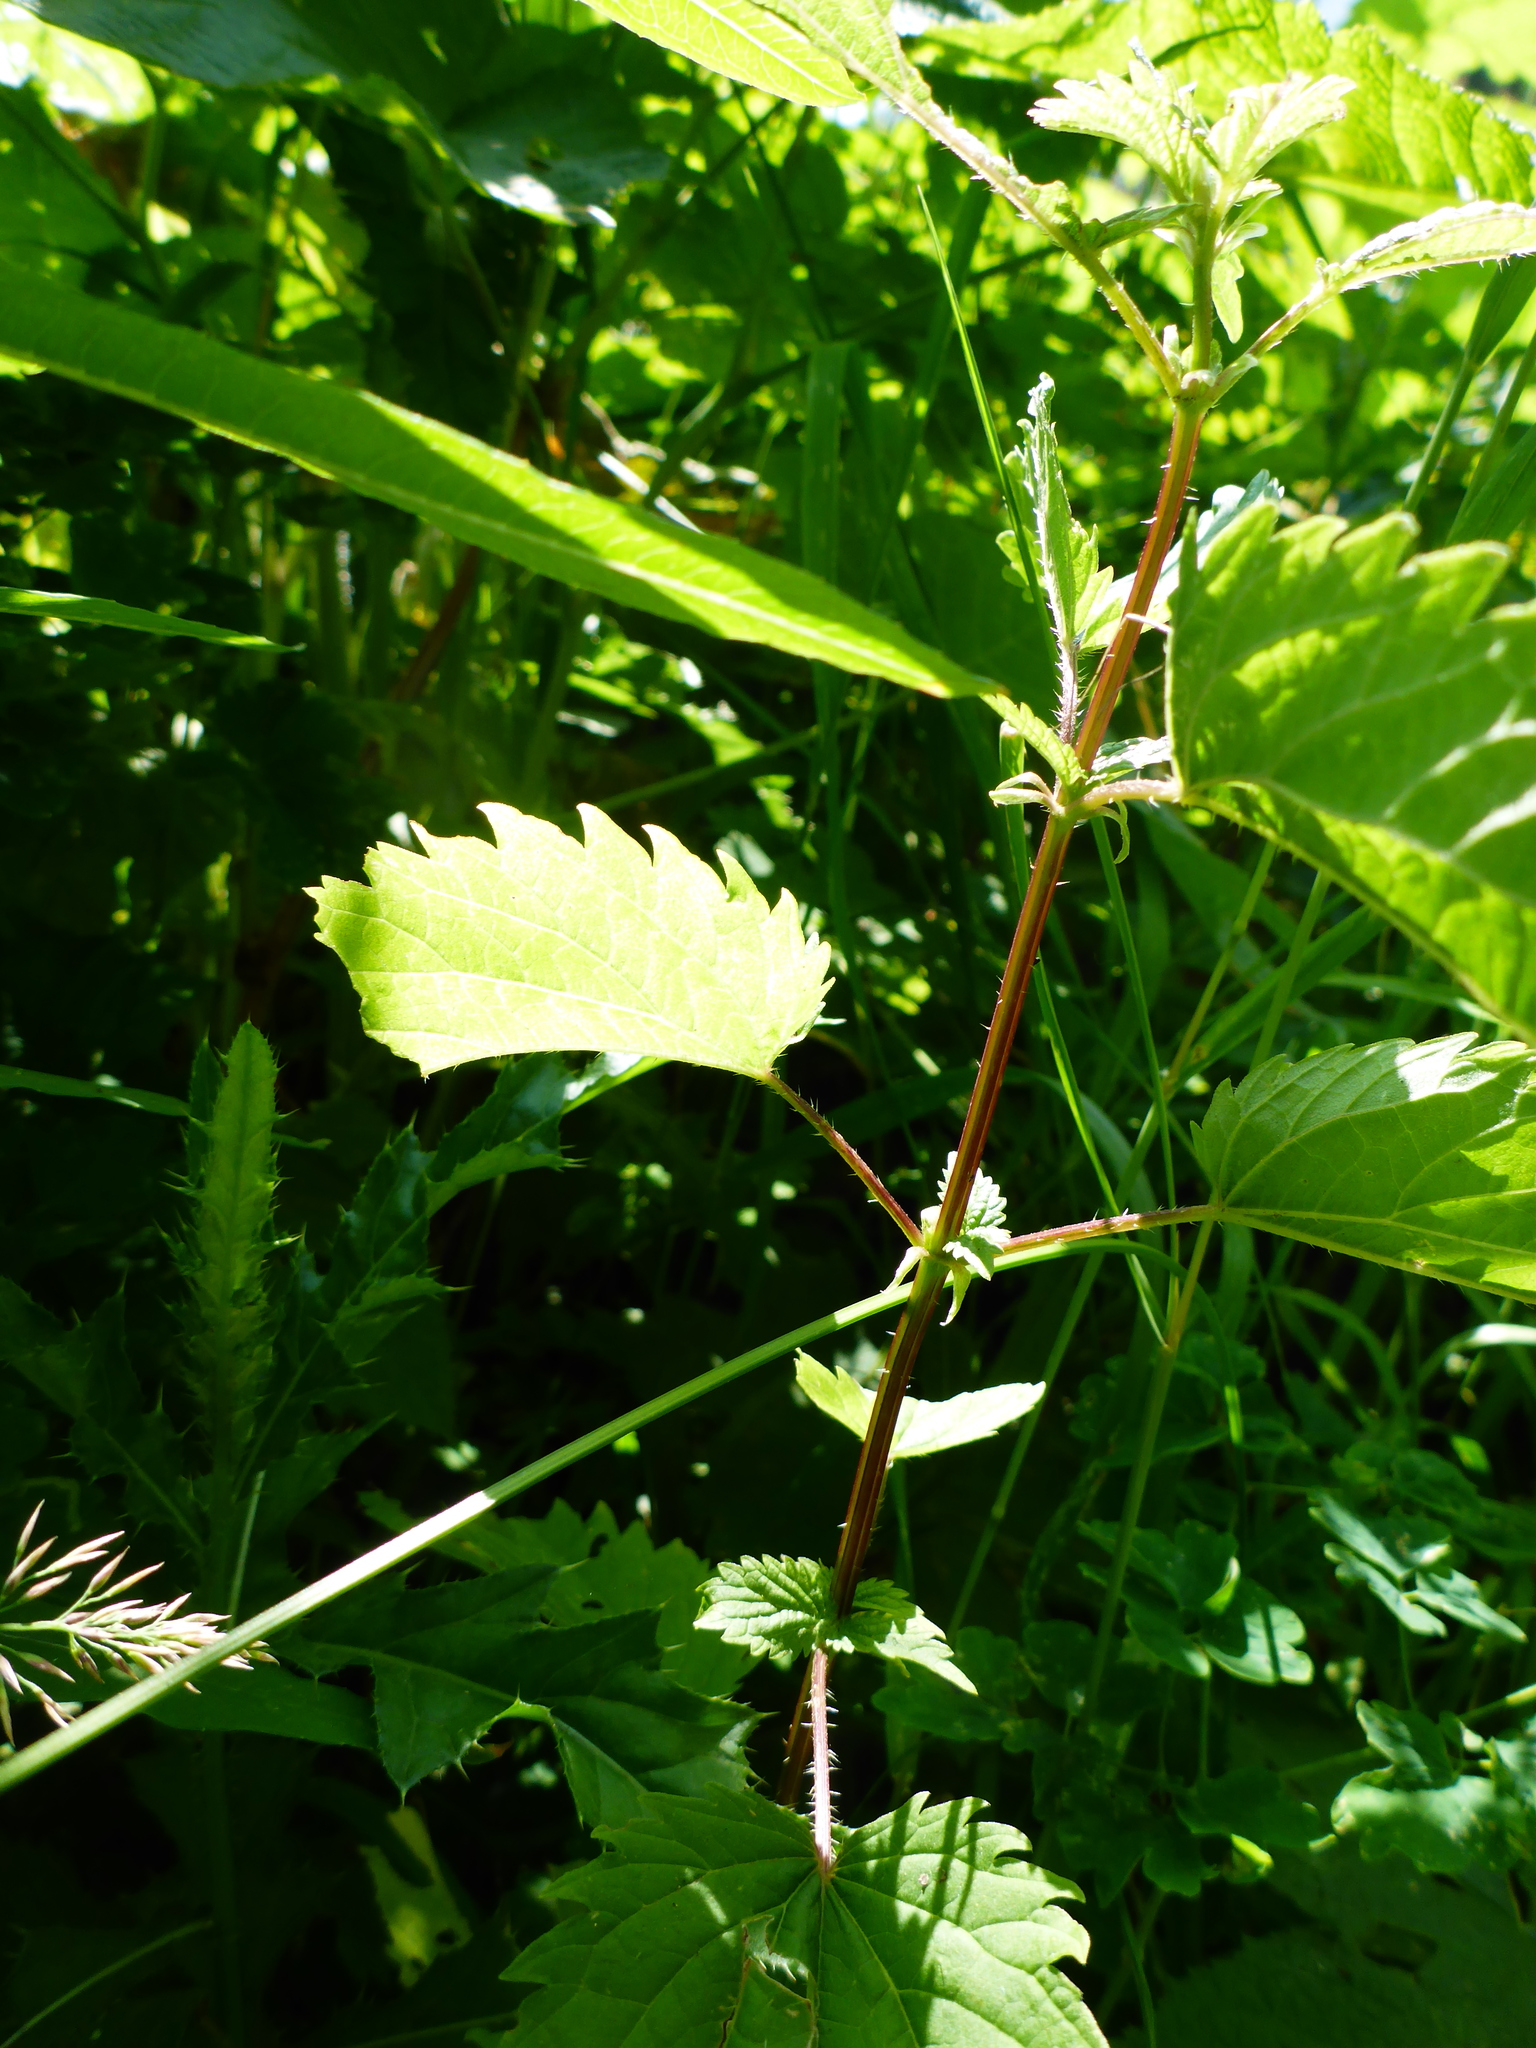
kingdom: Plantae
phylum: Tracheophyta
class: Magnoliopsida
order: Rosales
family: Urticaceae
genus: Urtica
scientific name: Urtica dioica
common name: Common nettle
